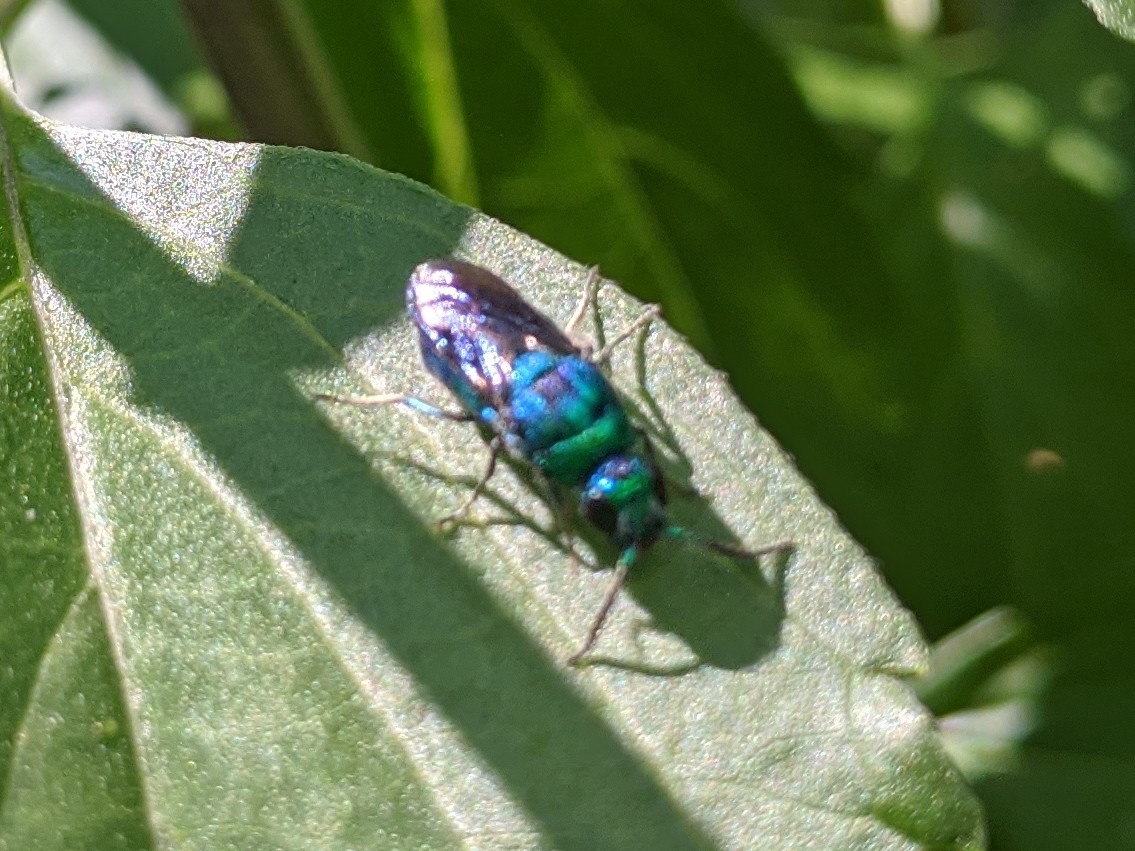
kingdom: Animalia
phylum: Arthropoda
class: Insecta
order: Hymenoptera
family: Chrysididae
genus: Chrysis
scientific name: Chrysis angolensis
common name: Cuckoo wasp
